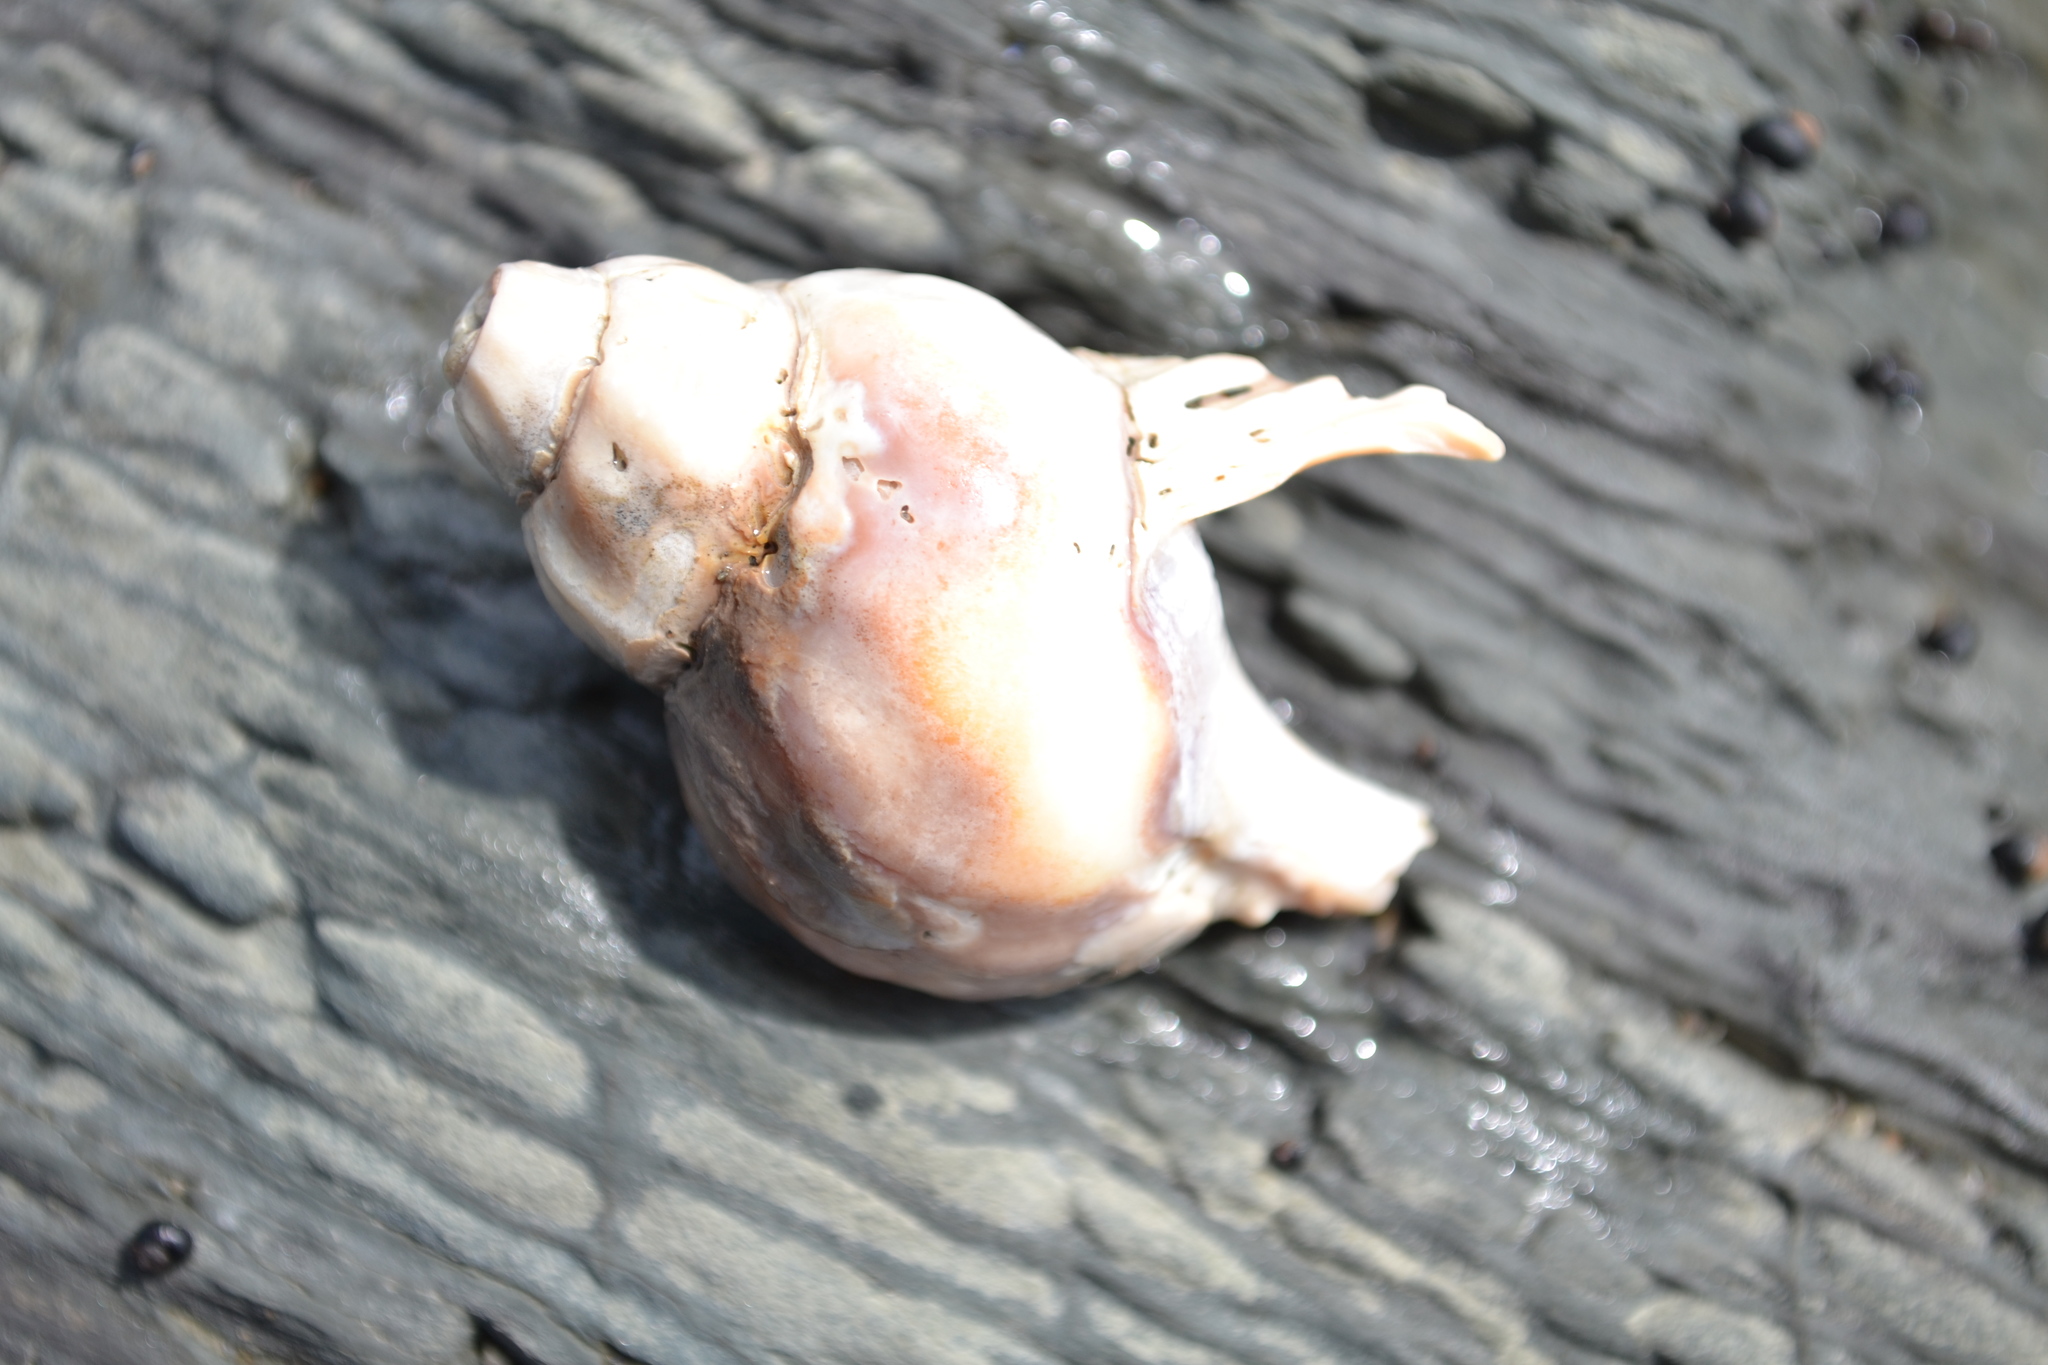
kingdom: Animalia
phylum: Mollusca
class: Gastropoda
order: Neogastropoda
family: Buccinidae
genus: Buccinum
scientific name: Buccinum undatum
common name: Common whelk
